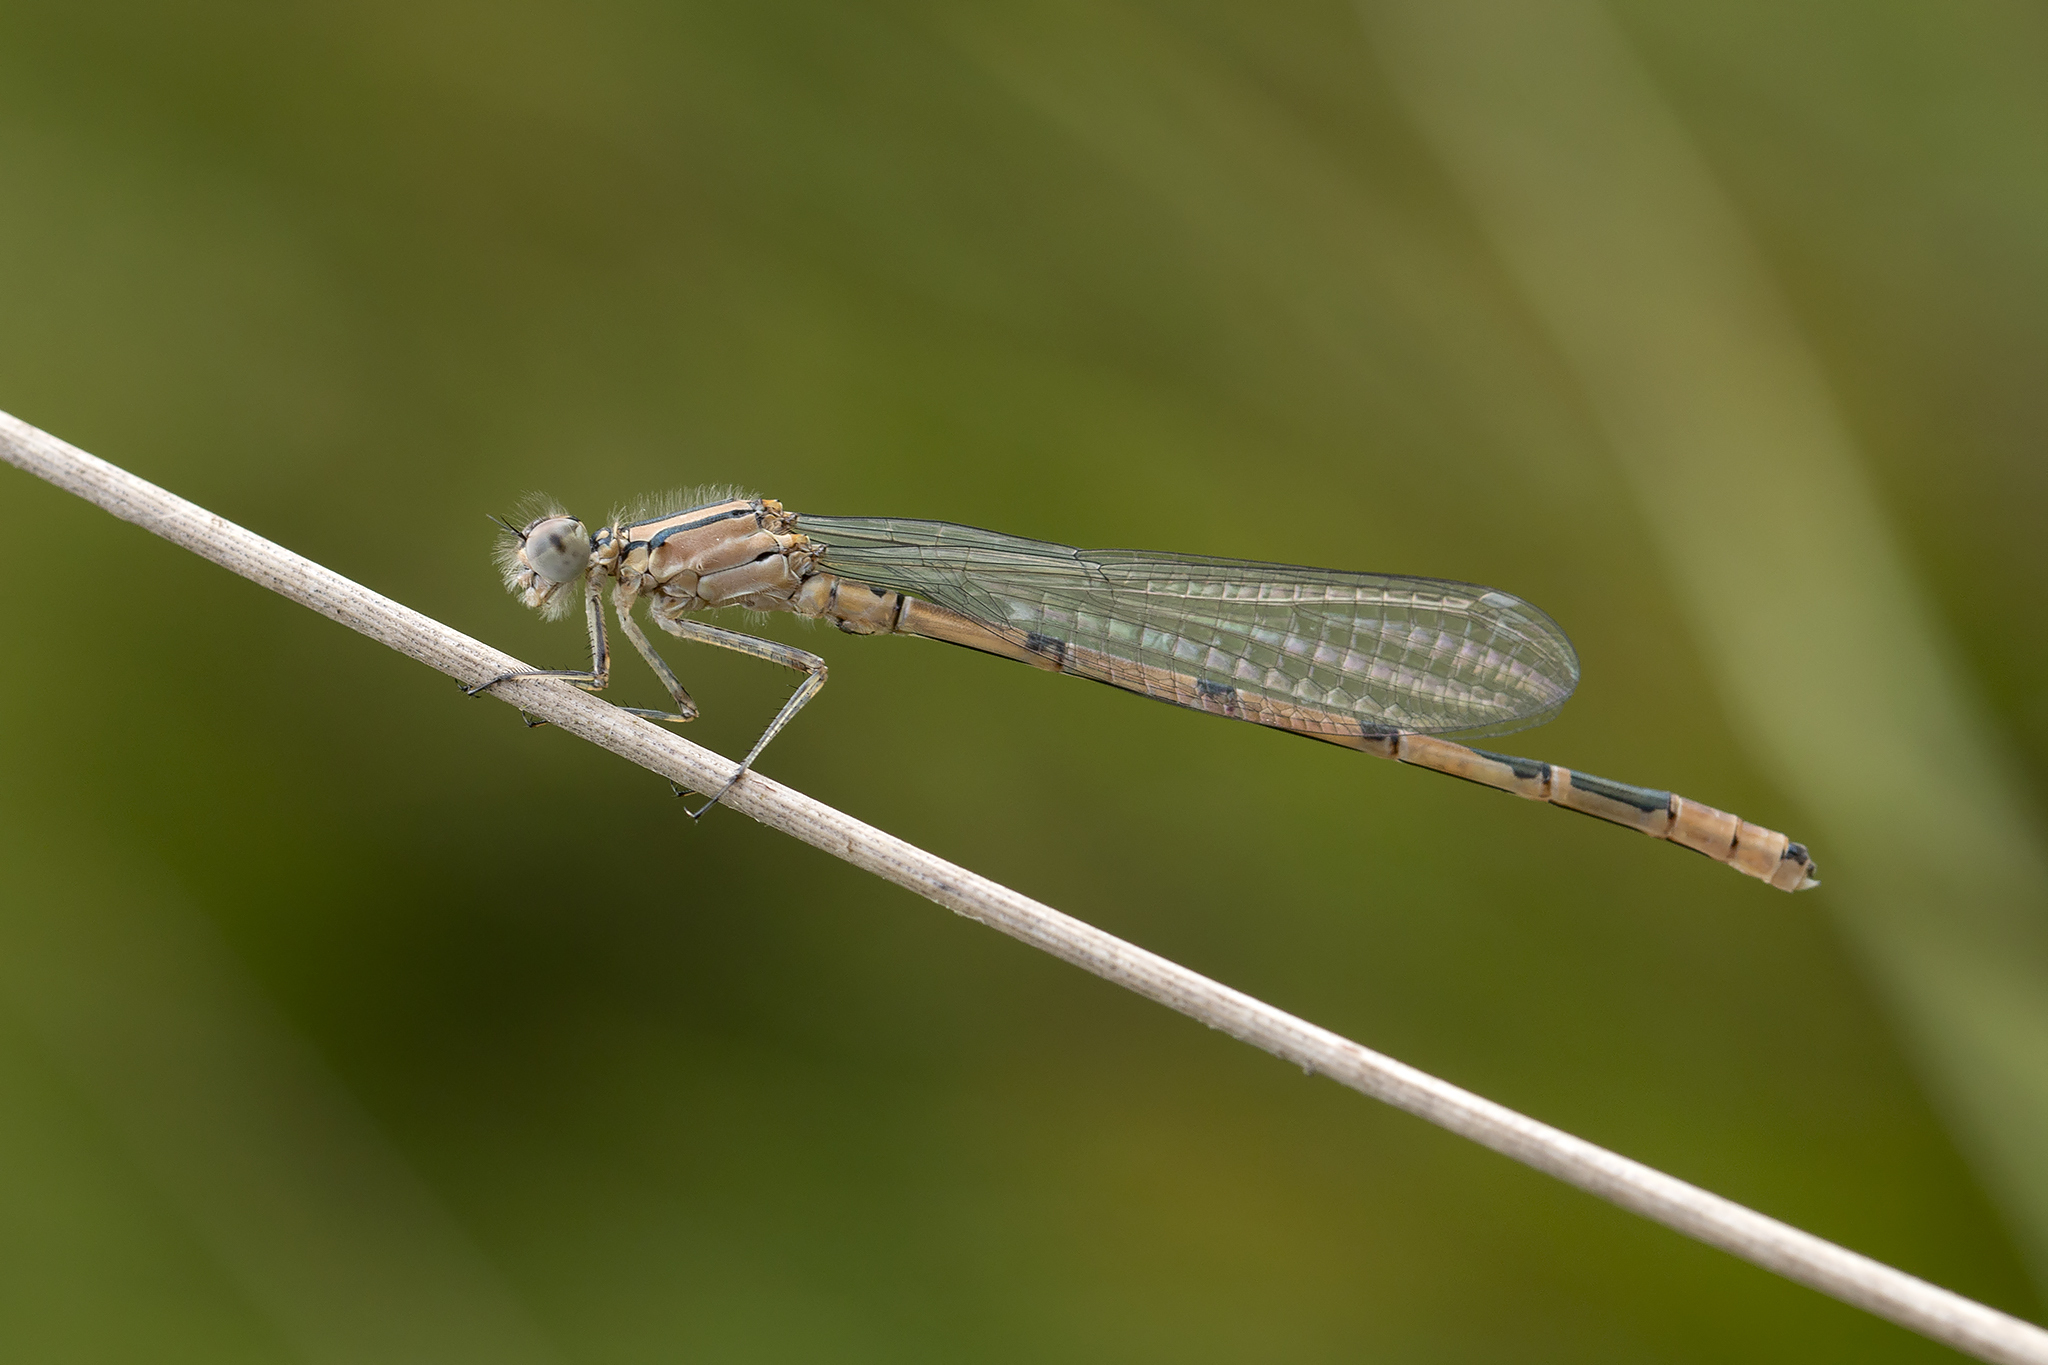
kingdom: Animalia
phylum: Arthropoda
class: Insecta
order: Odonata
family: Coenagrionidae
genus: Enallagma
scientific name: Enallagma cyathigerum
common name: Common blue damselfly
